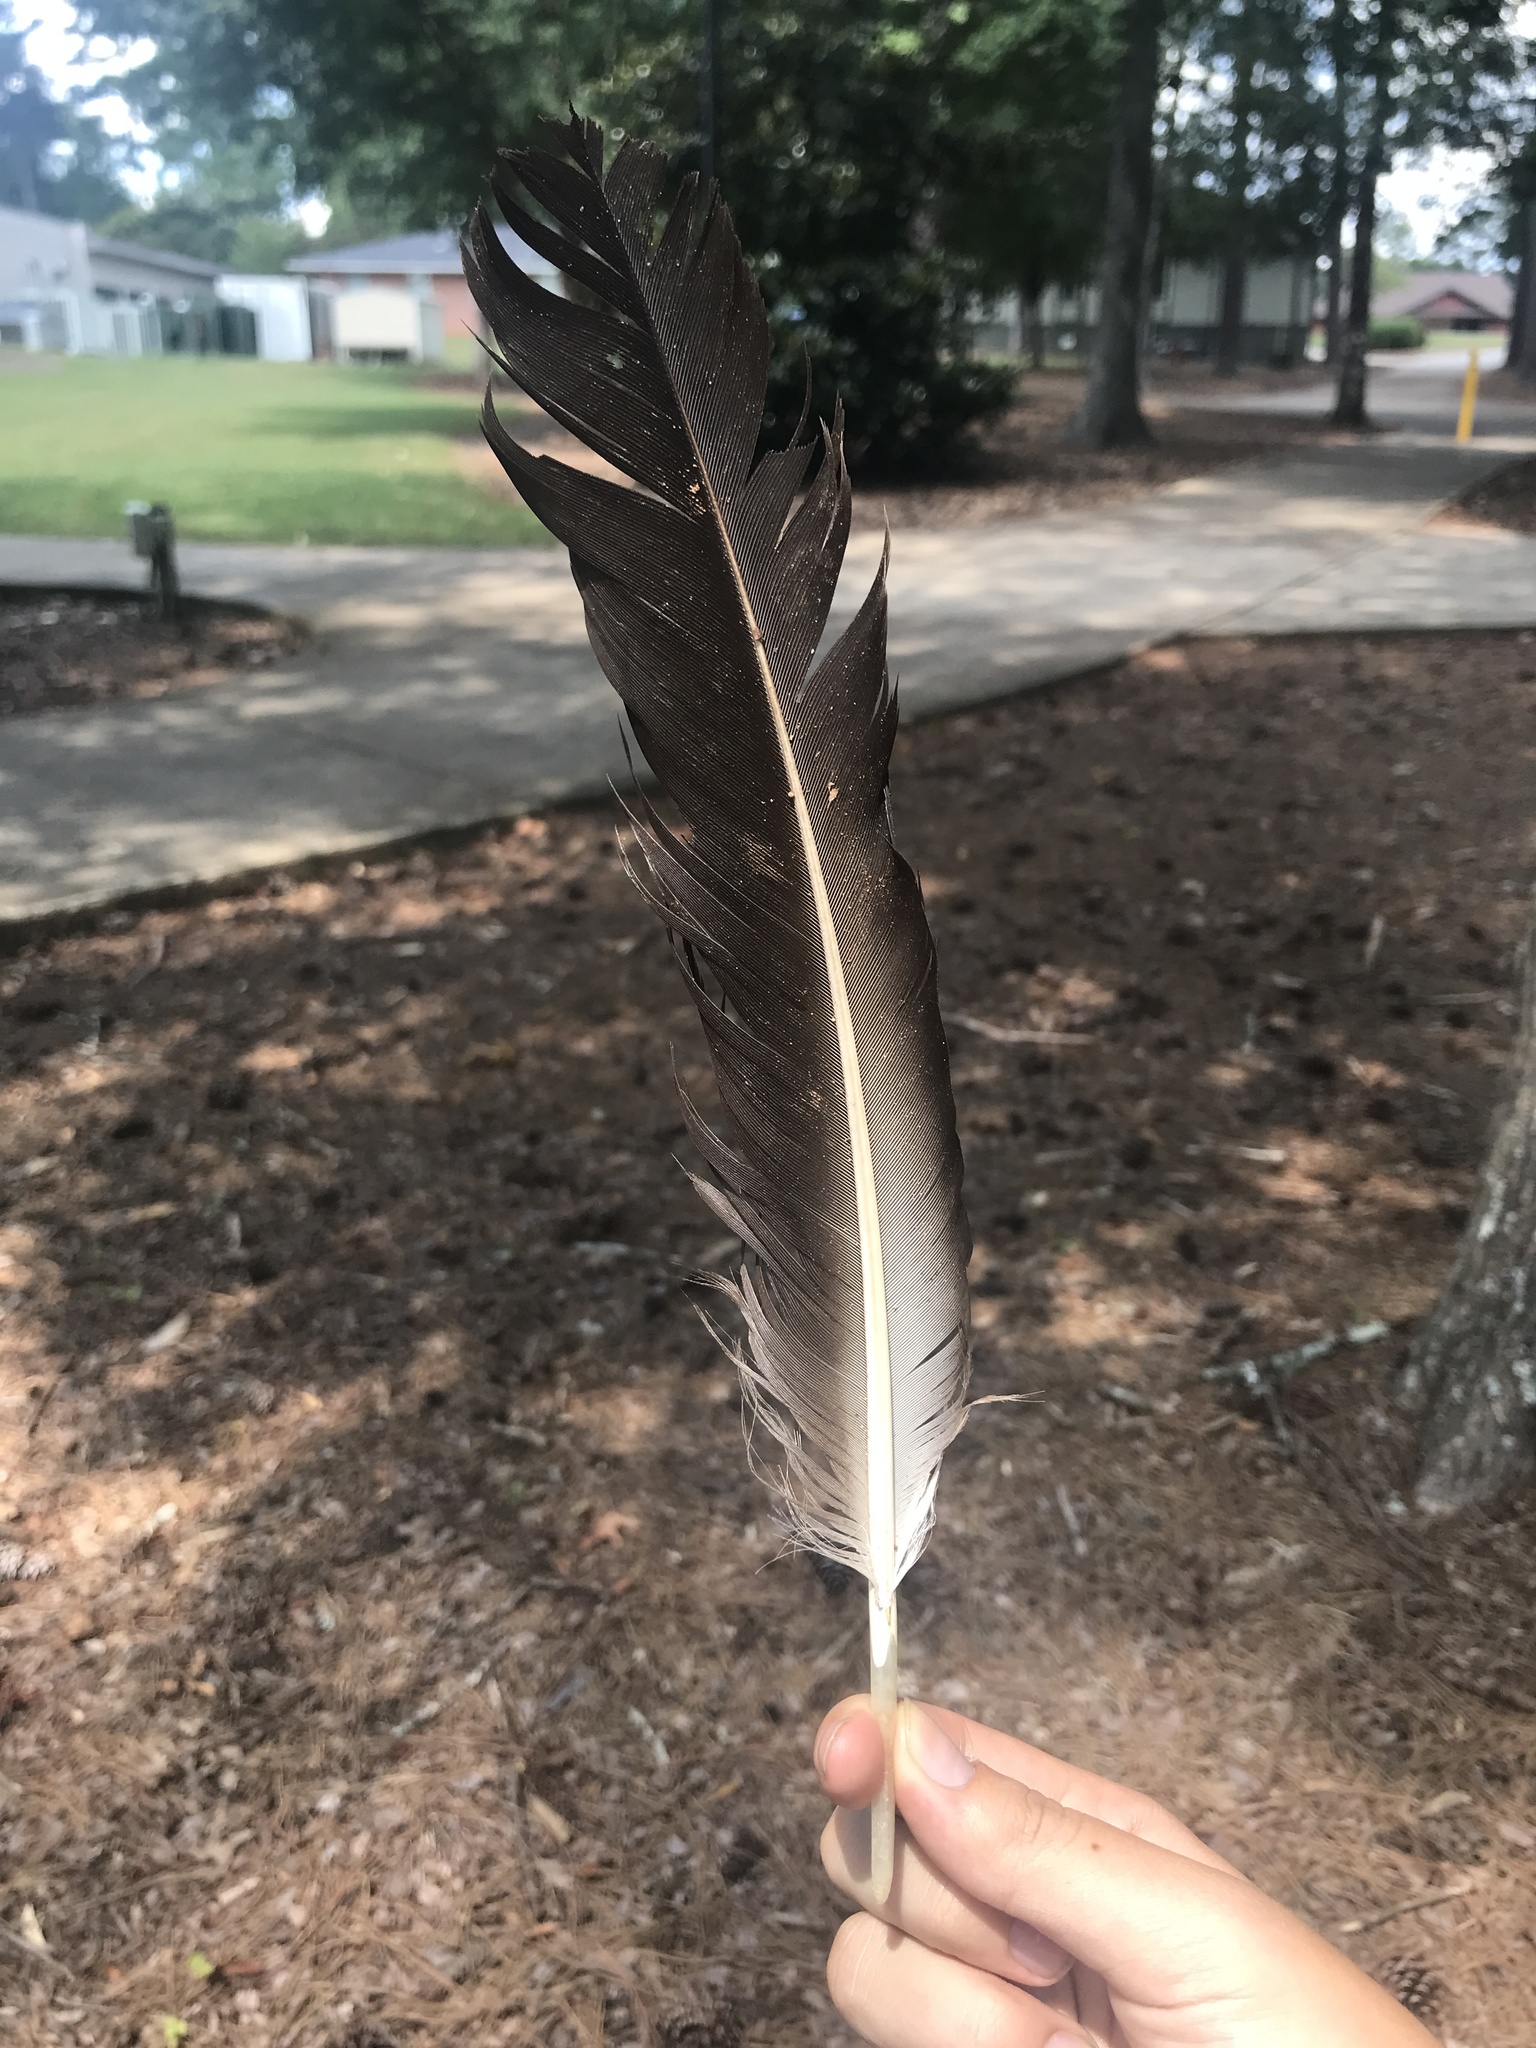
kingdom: Animalia
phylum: Chordata
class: Aves
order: Accipitriformes
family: Cathartidae
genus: Coragyps
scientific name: Coragyps atratus
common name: Black vulture
